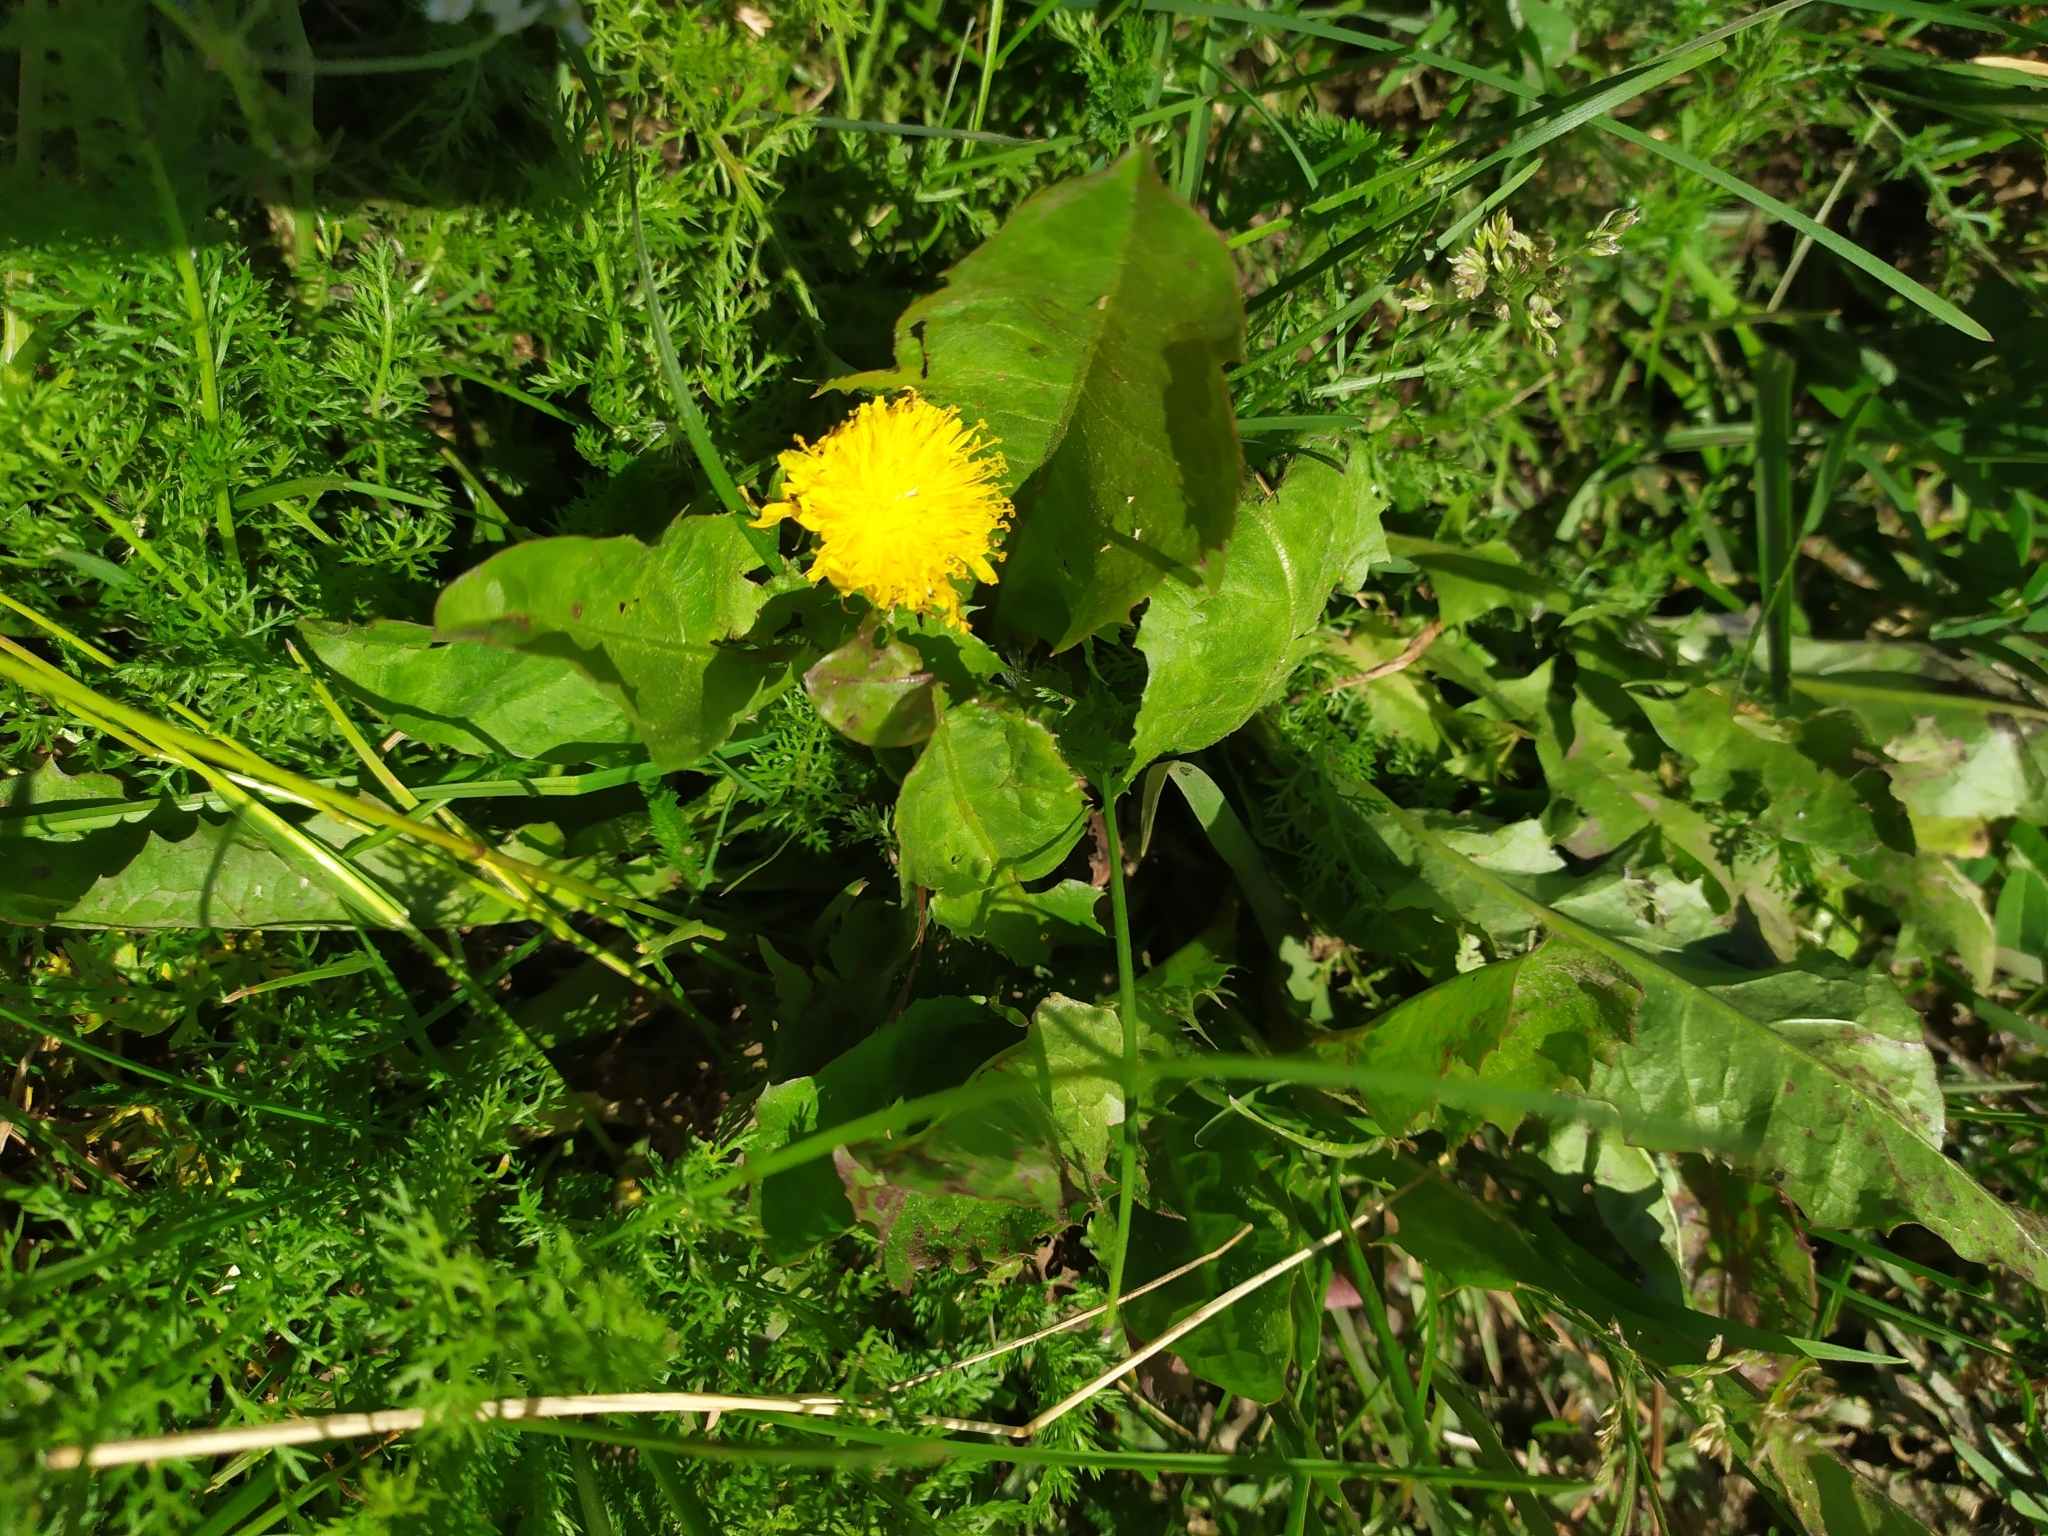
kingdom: Plantae
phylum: Tracheophyta
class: Magnoliopsida
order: Asterales
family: Asteraceae
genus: Taraxacum
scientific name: Taraxacum officinale
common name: Common dandelion
